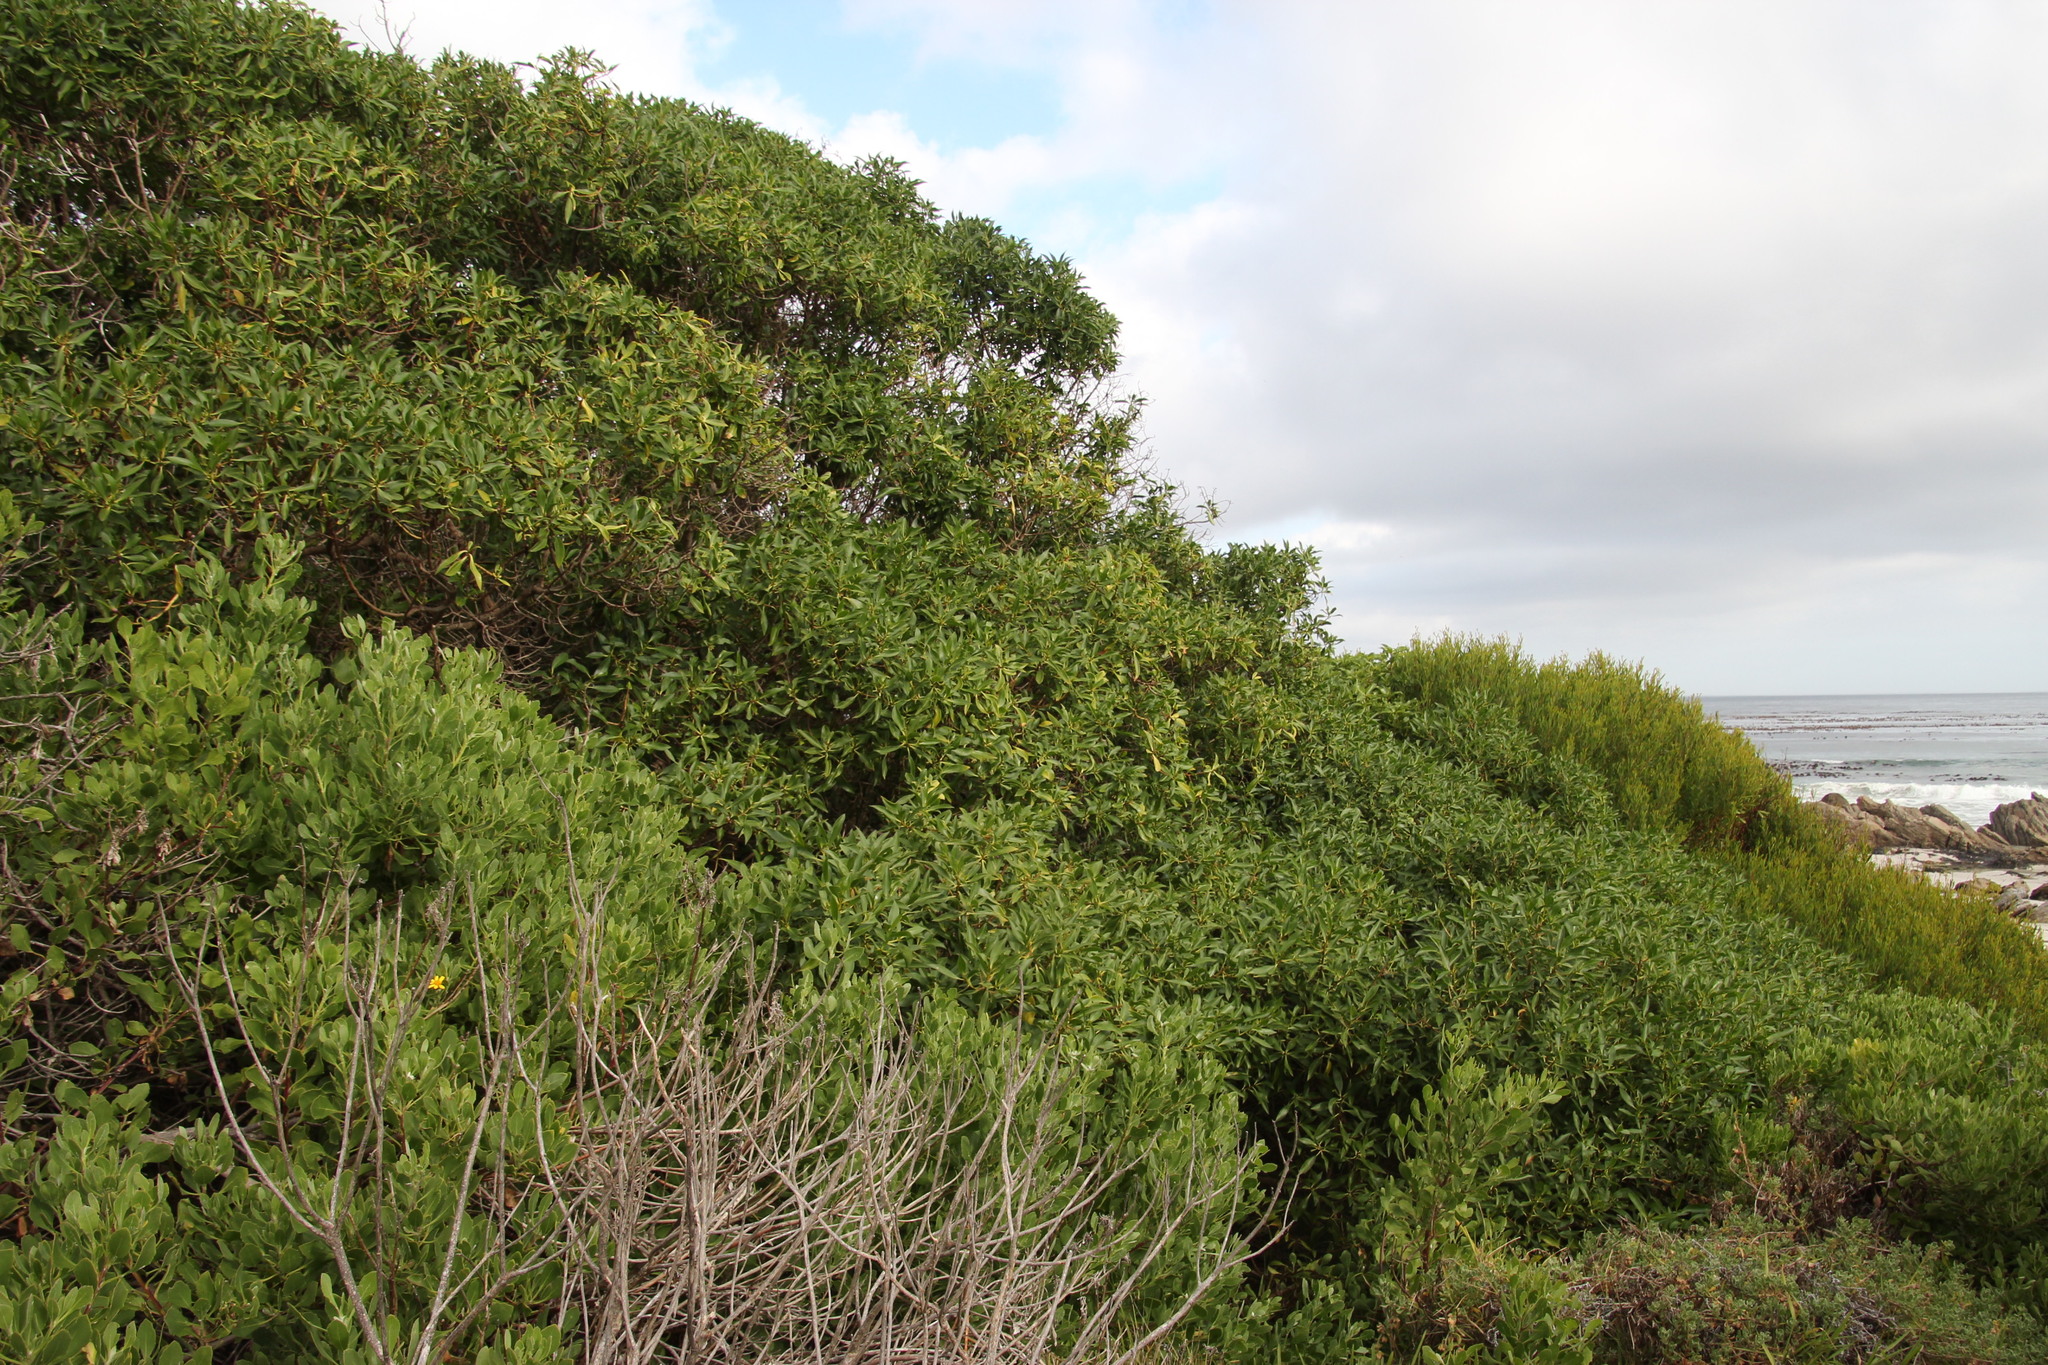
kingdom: Plantae
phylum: Tracheophyta
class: Magnoliopsida
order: Lamiales
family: Scrophulariaceae
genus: Myoporum
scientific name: Myoporum montanum
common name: Waterbush
